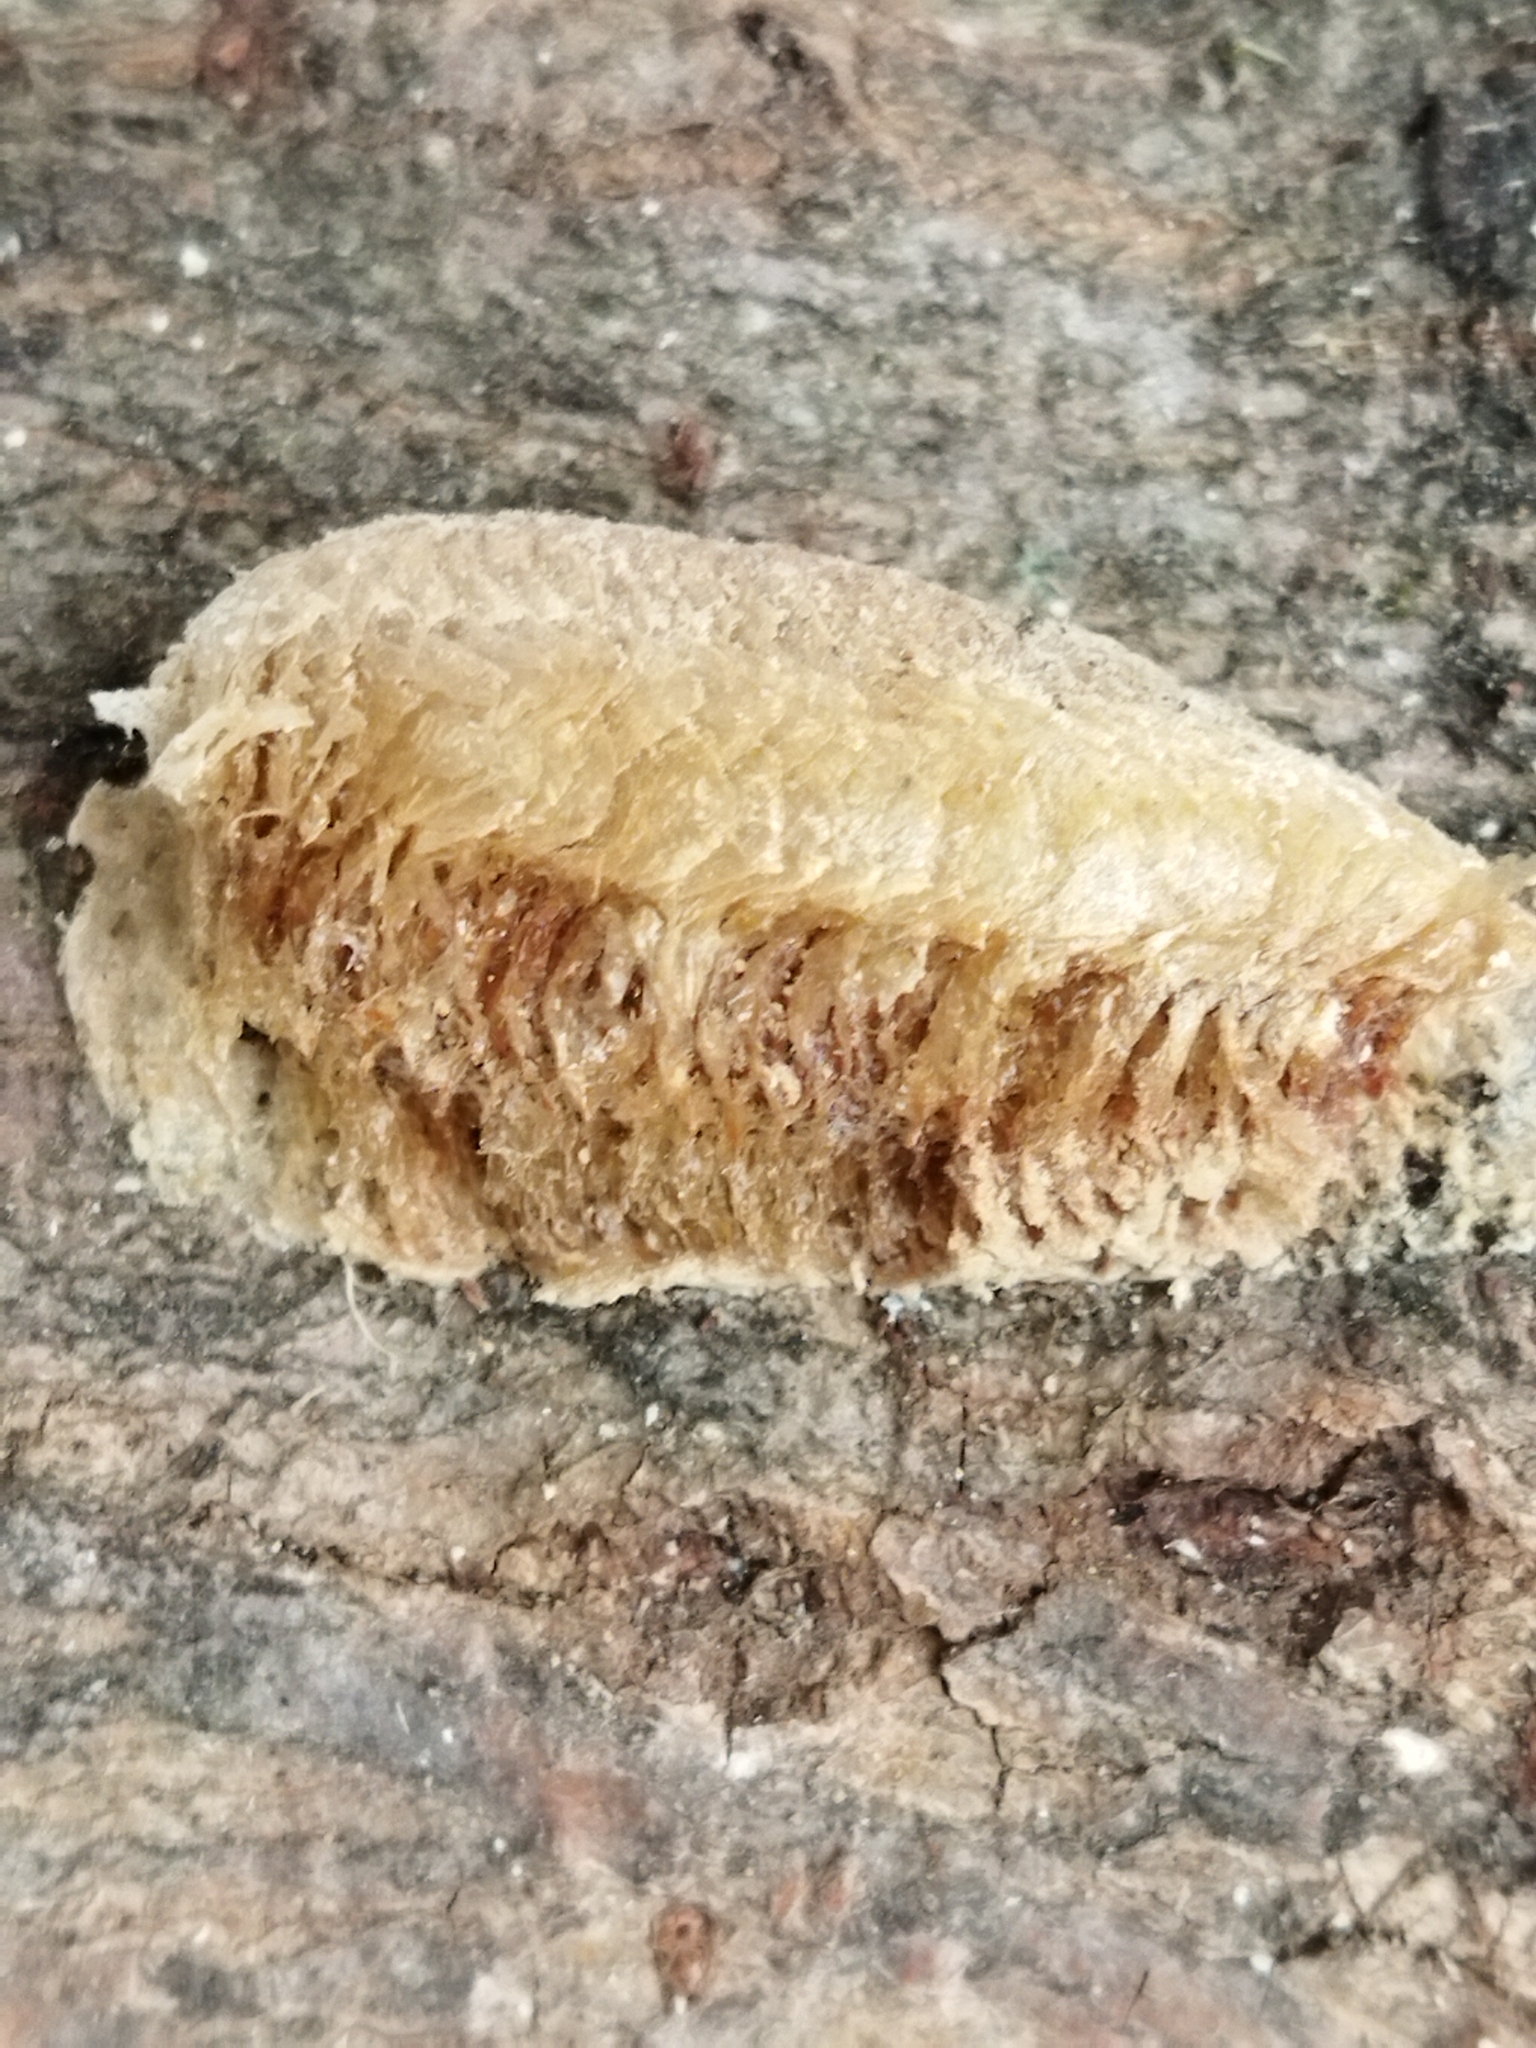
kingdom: Animalia
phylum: Arthropoda
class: Insecta
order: Mantodea
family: Mantidae
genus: Mantis
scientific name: Mantis religiosa
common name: Praying mantis
